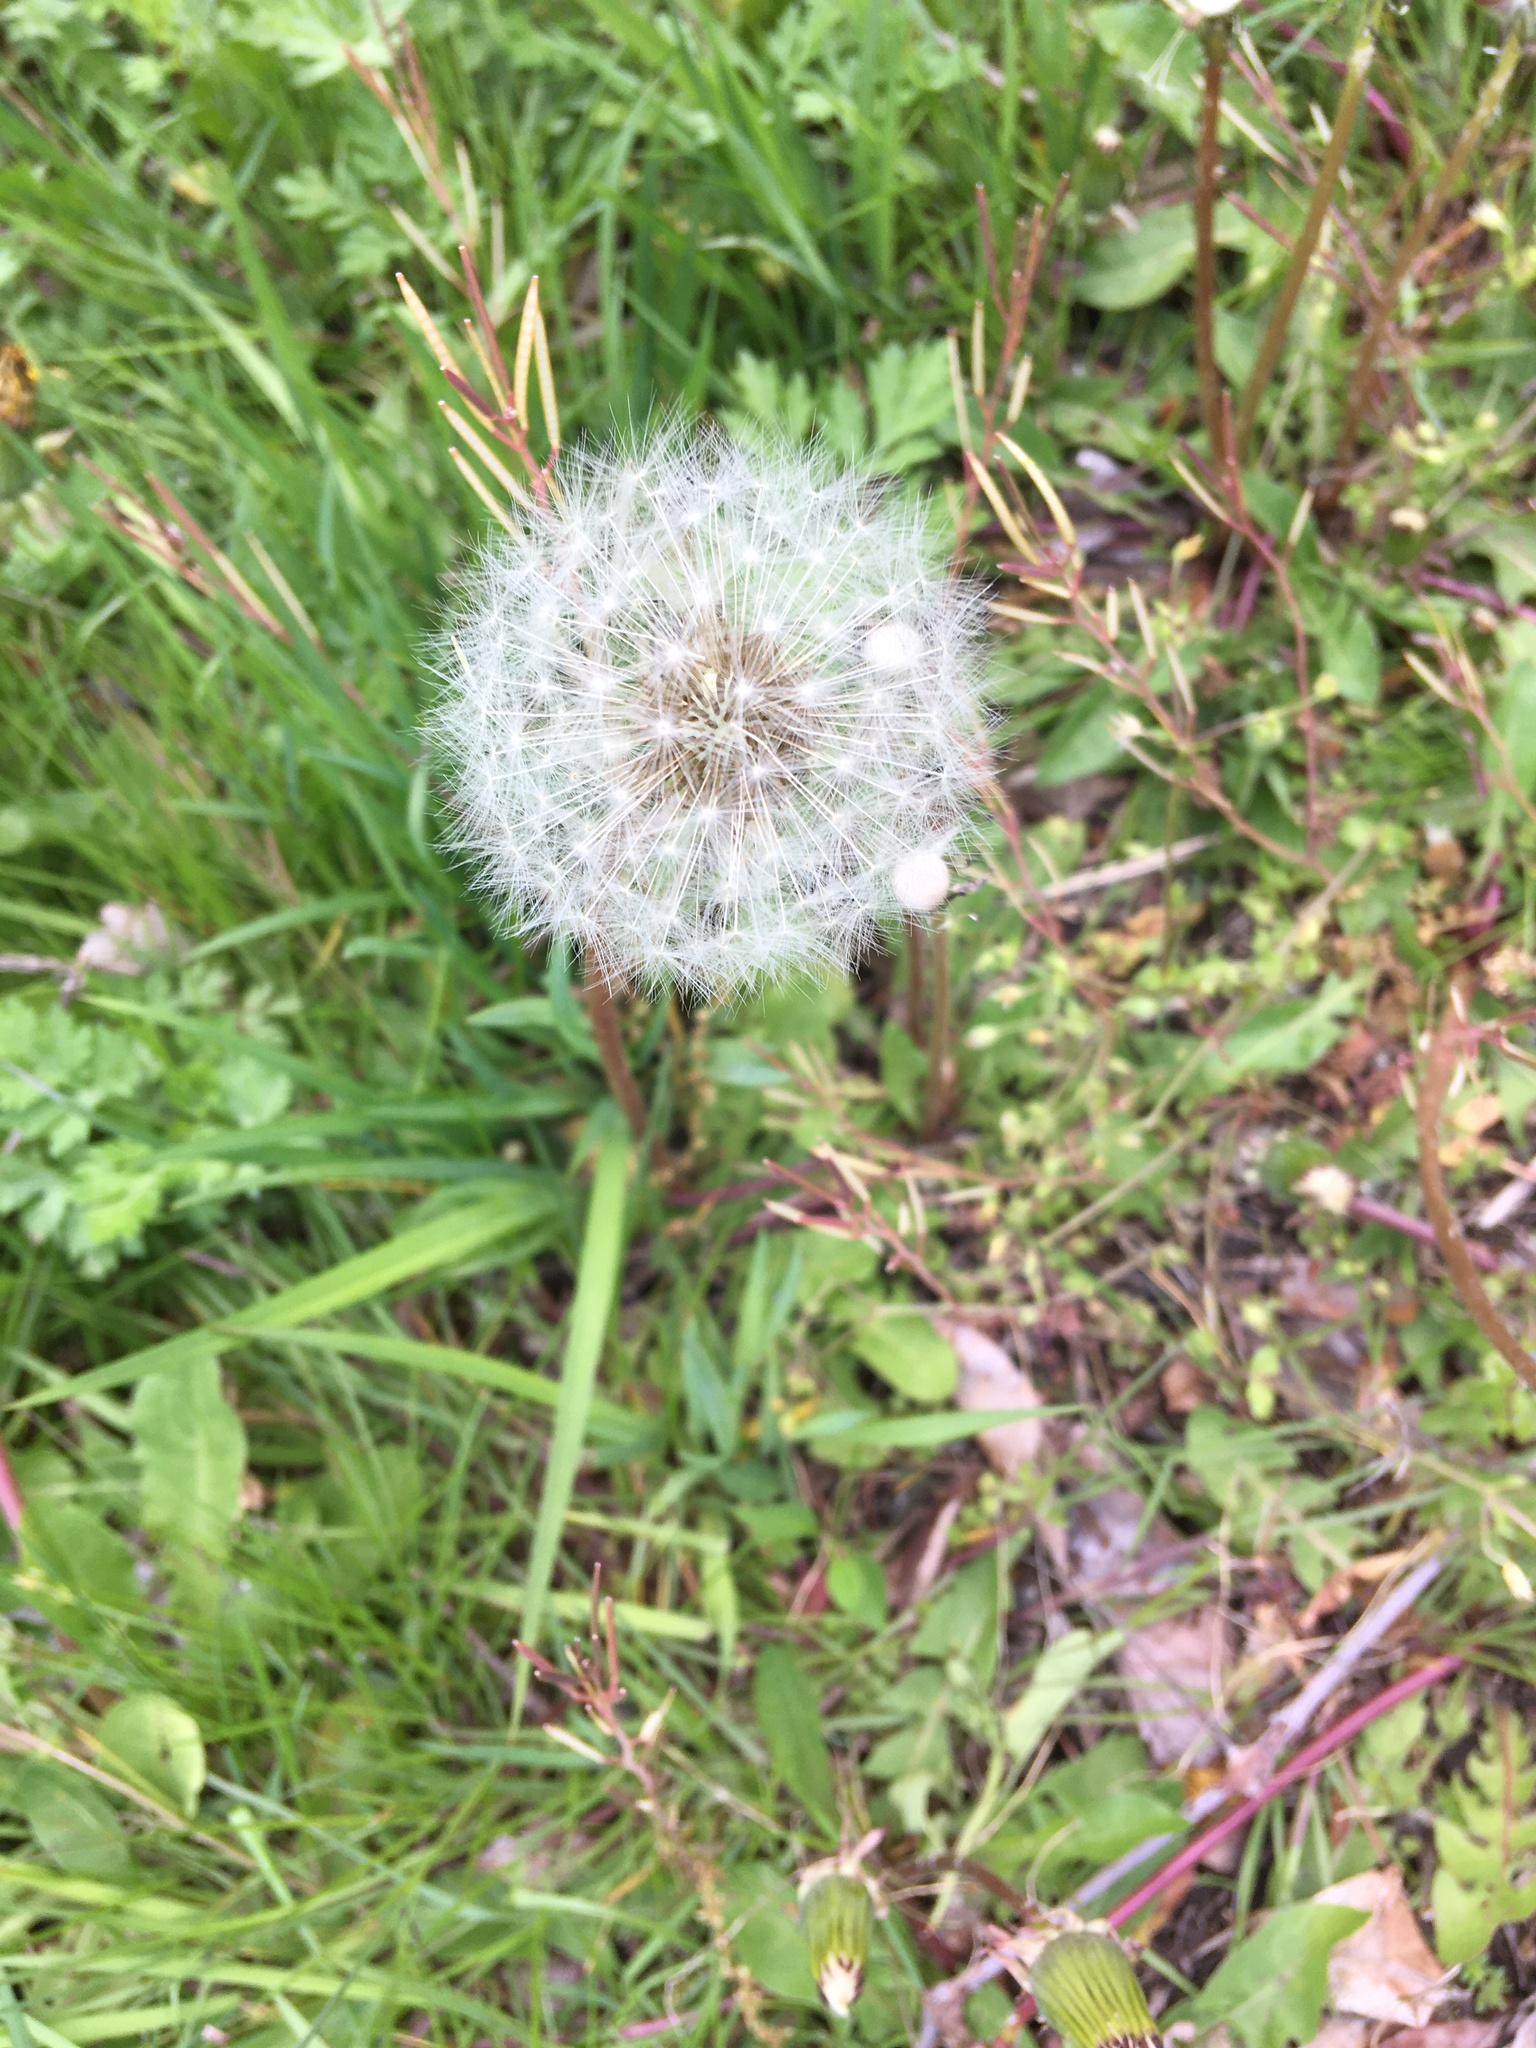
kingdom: Plantae
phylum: Tracheophyta
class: Magnoliopsida
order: Asterales
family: Asteraceae
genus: Taraxacum
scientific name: Taraxacum officinale
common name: Common dandelion
